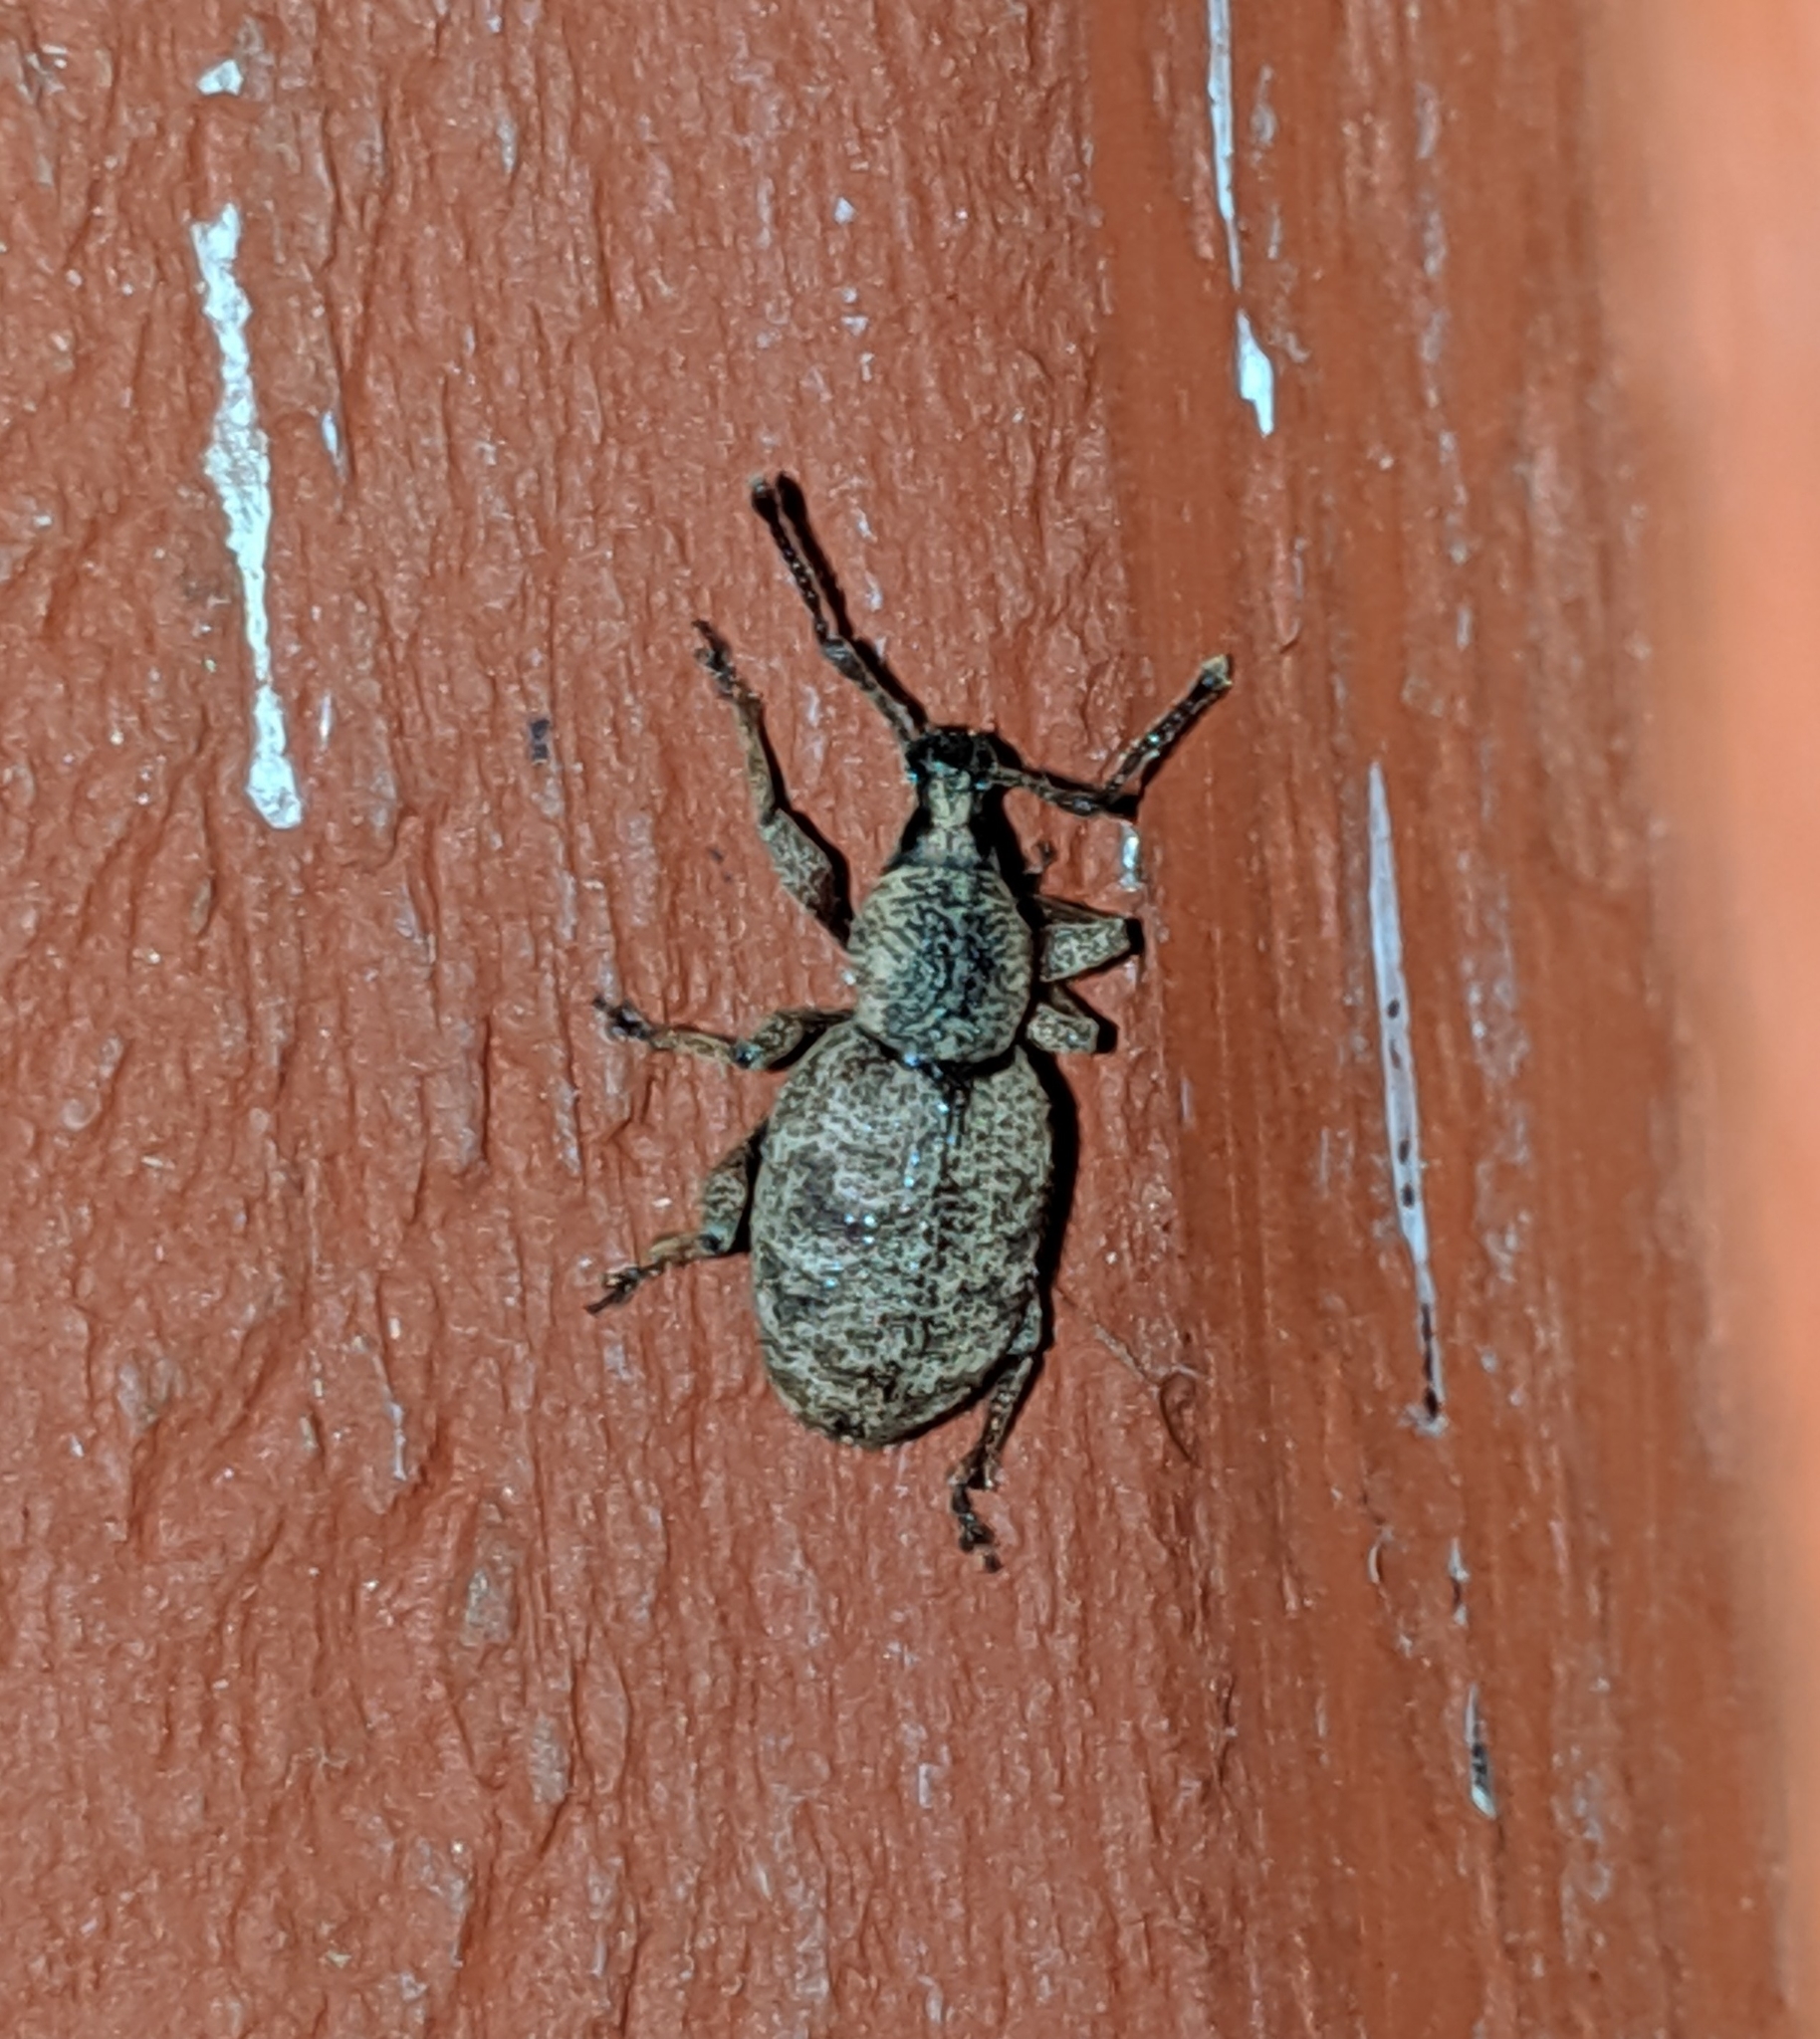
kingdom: Animalia
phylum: Arthropoda
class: Insecta
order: Coleoptera
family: Curculionidae
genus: Otiorhynchus
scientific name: Otiorhynchus singularis
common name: Clay-coloured weevil
